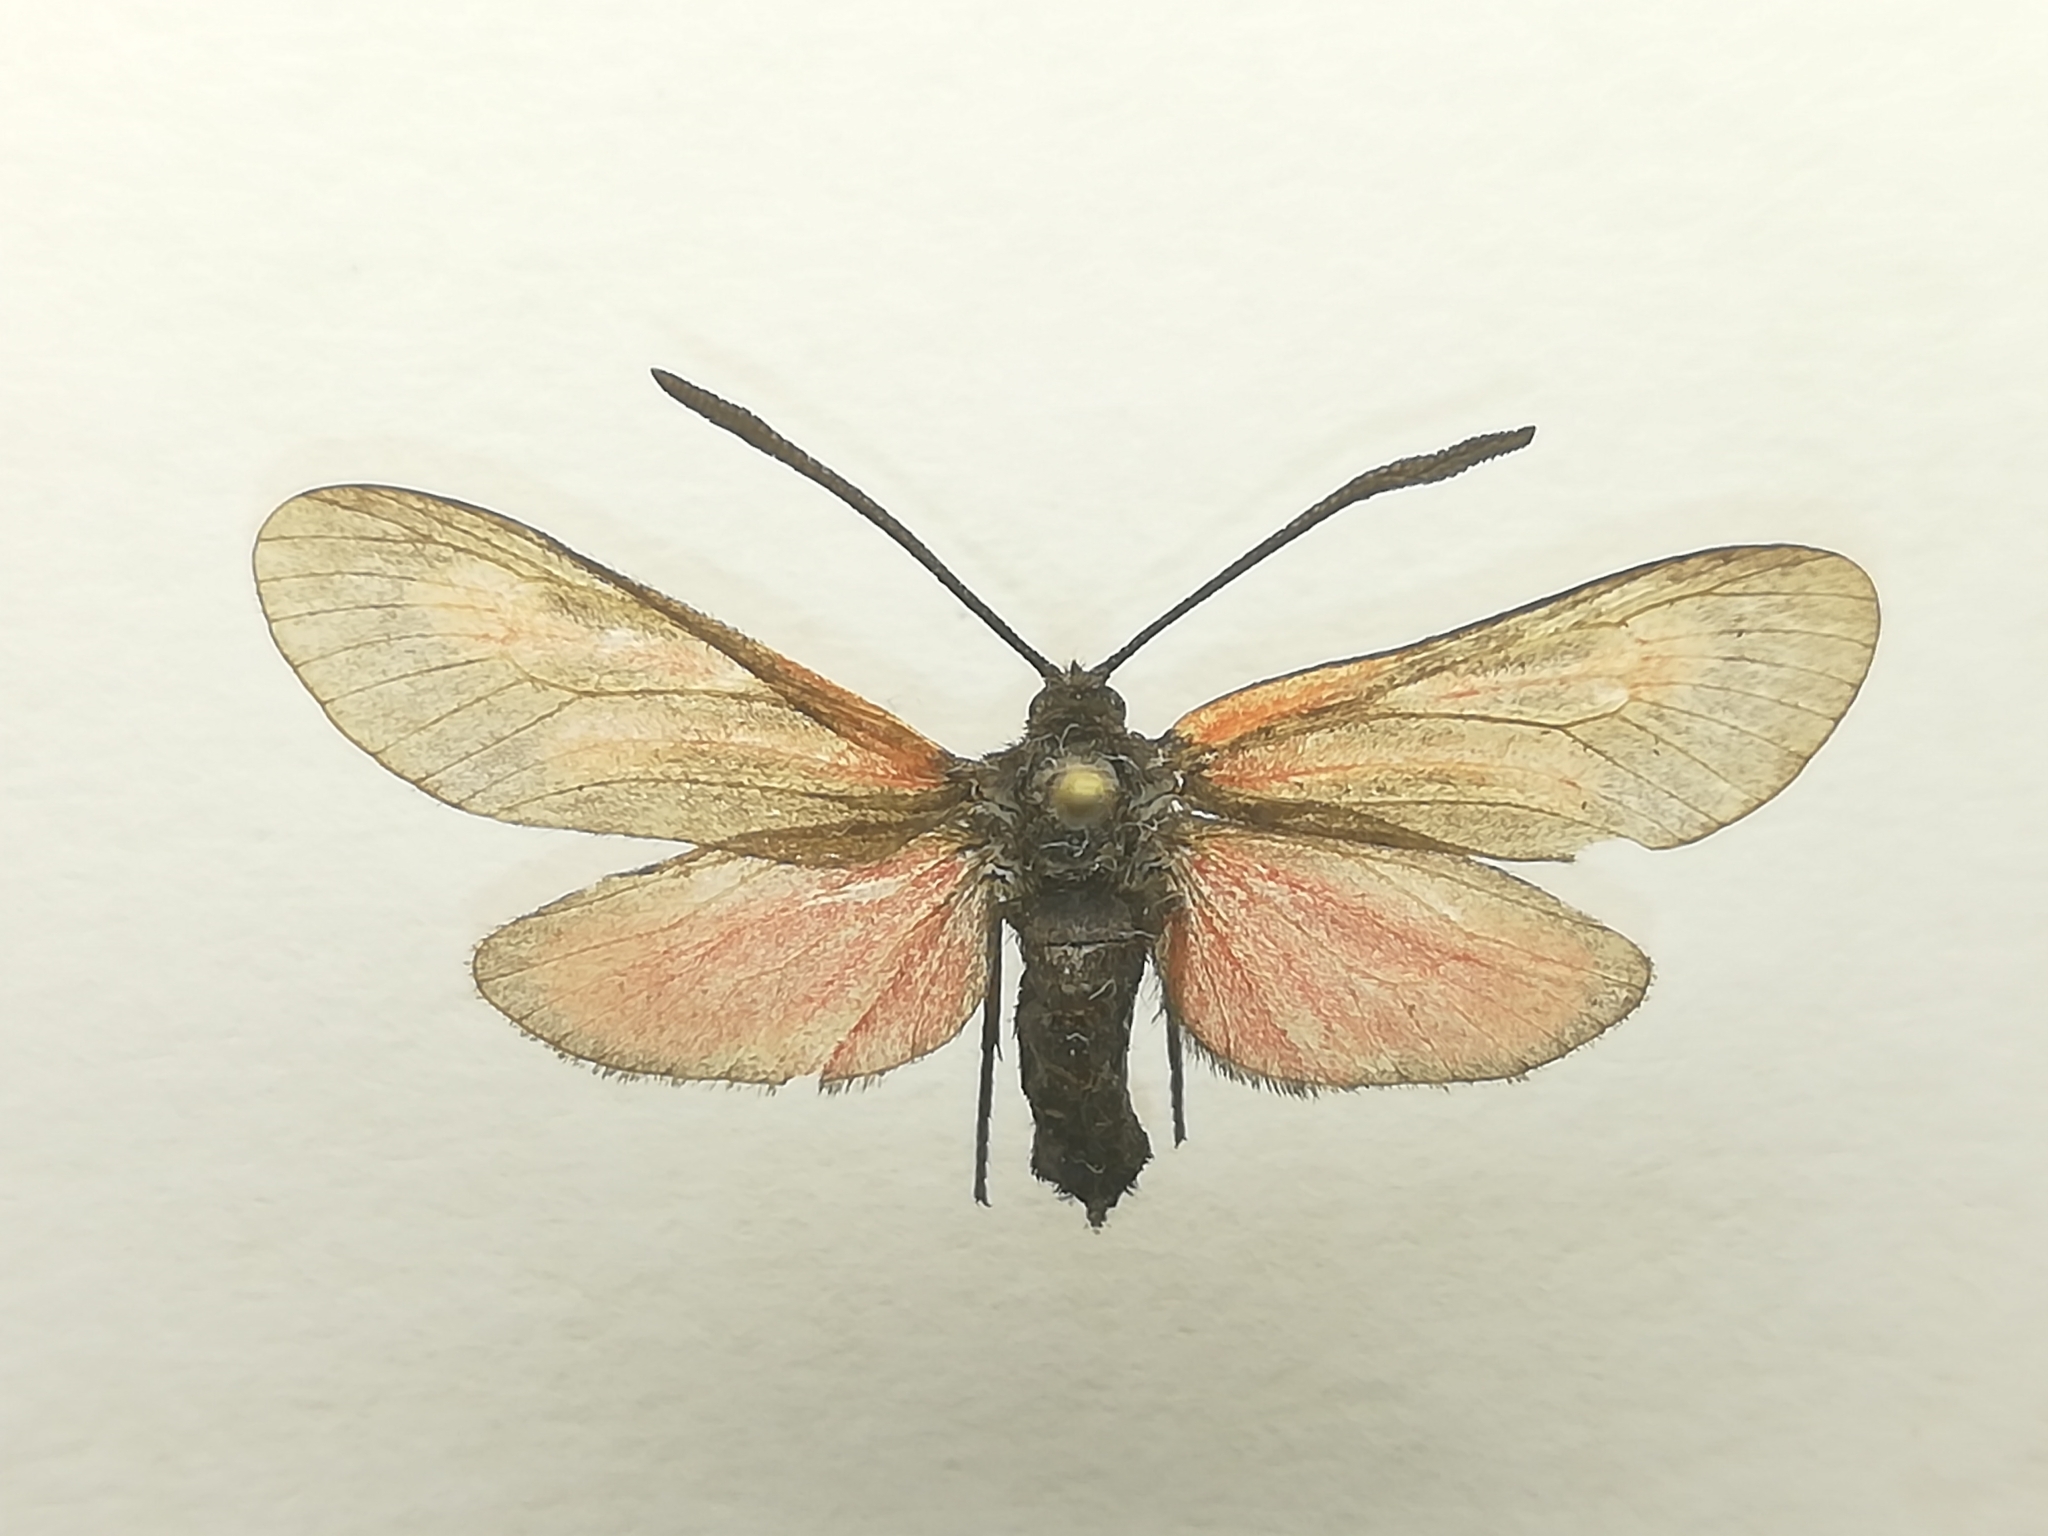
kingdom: Animalia
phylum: Arthropoda
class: Insecta
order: Lepidoptera
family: Zygaenidae
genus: Zygaena
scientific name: Zygaena osterodensis
